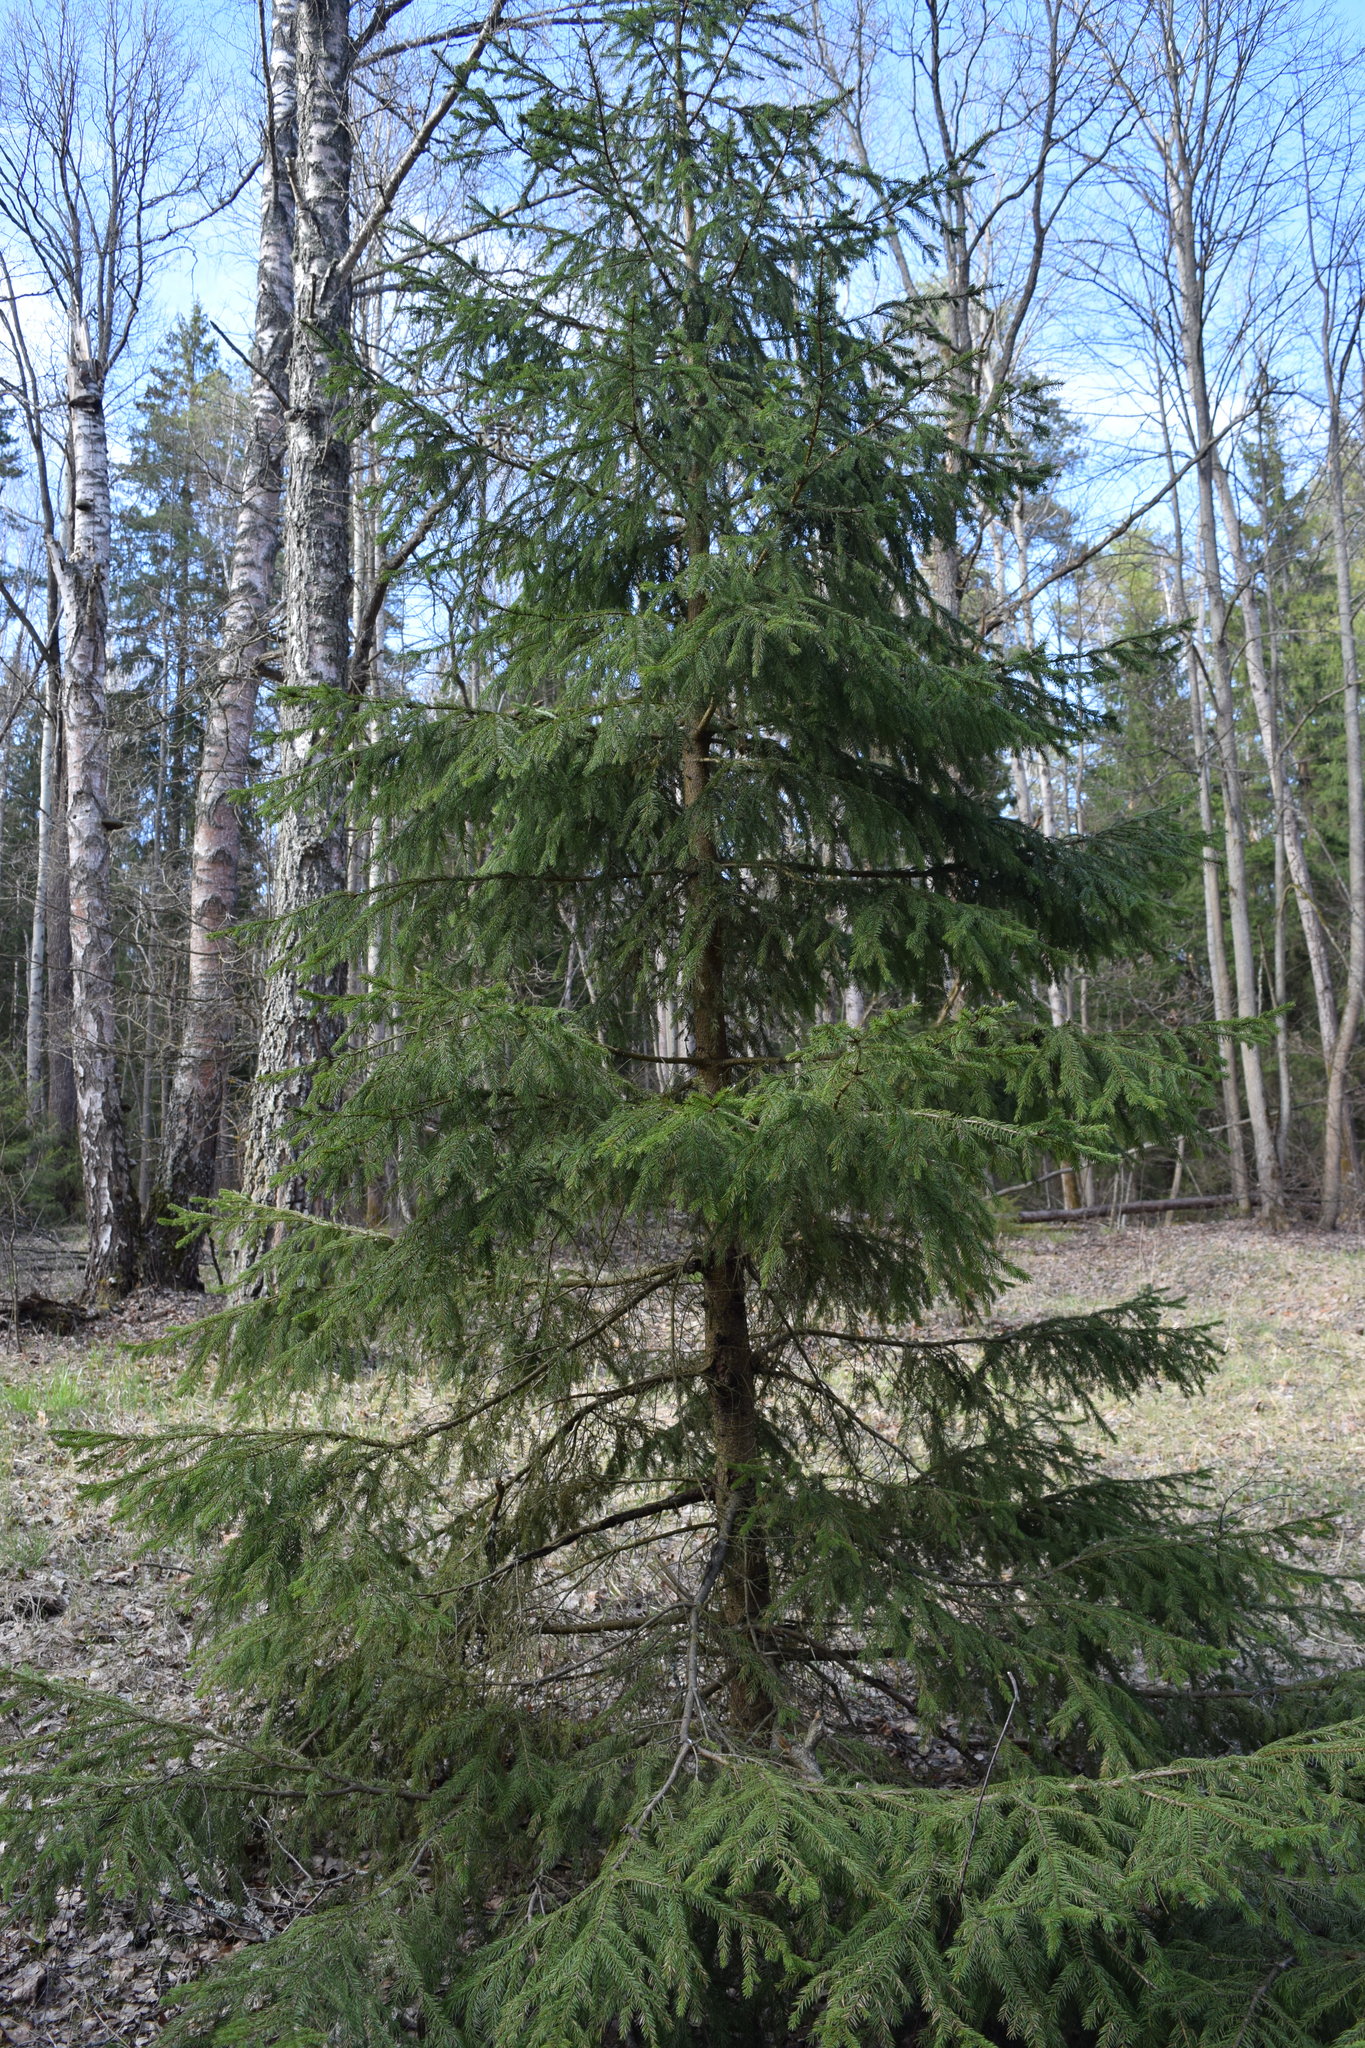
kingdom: Plantae
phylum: Tracheophyta
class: Pinopsida
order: Pinales
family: Pinaceae
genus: Picea
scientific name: Picea abies
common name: Norway spruce
